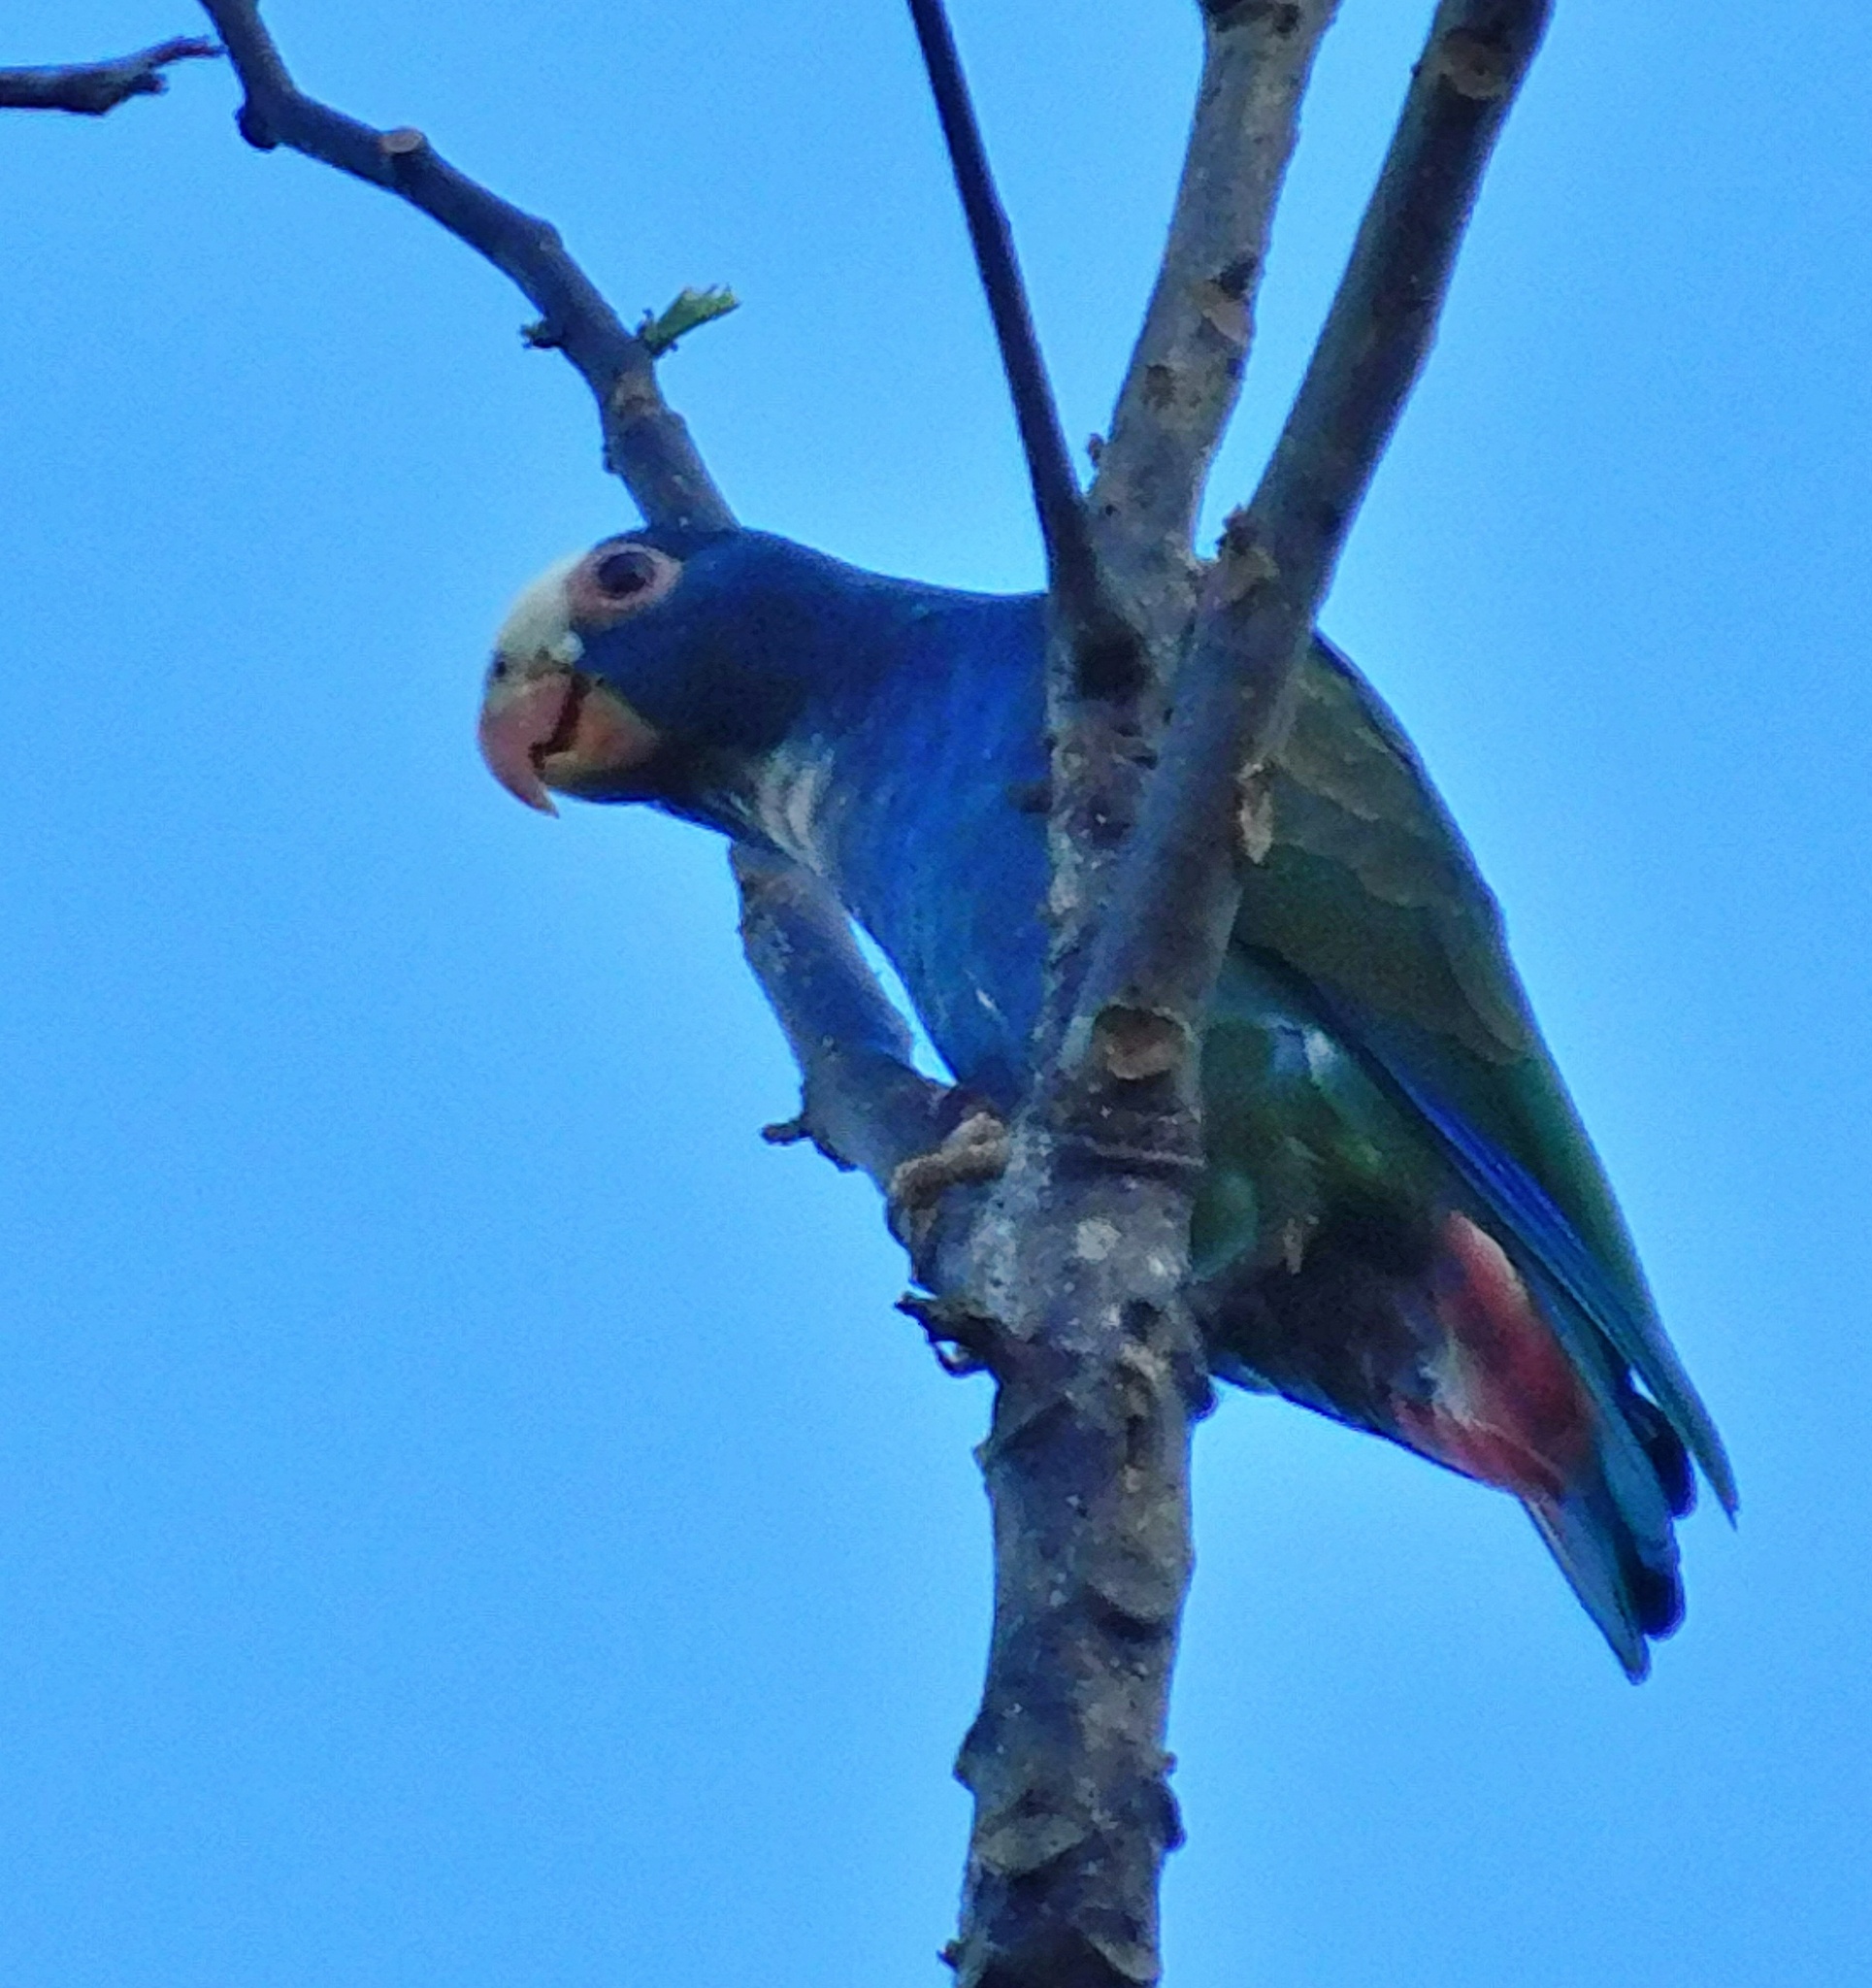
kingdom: Animalia
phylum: Chordata
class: Aves
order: Psittaciformes
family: Psittacidae
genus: Pionus
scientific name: Pionus senilis
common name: White-crowned parrot
